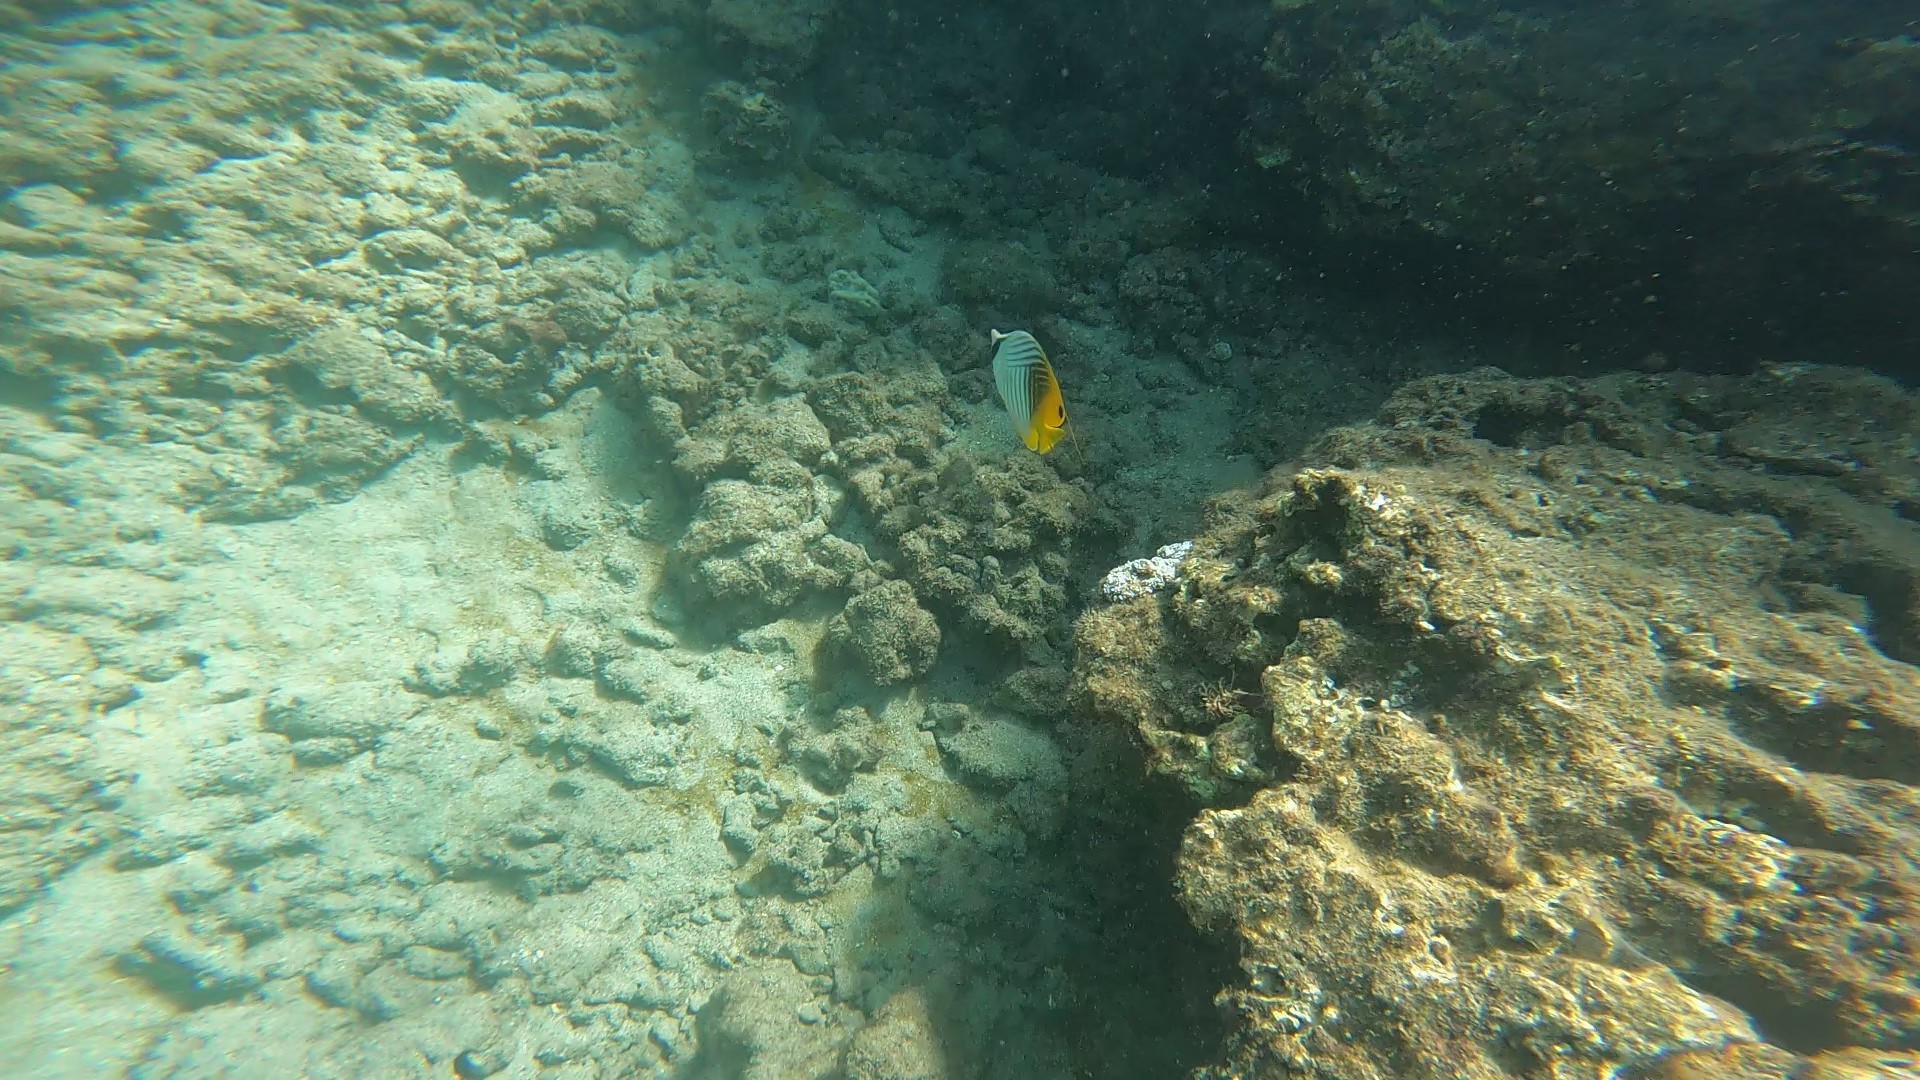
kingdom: Animalia
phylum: Chordata
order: Perciformes
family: Chaetodontidae
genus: Chaetodon
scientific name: Chaetodon auriga
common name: Threadfin butterflyfish
